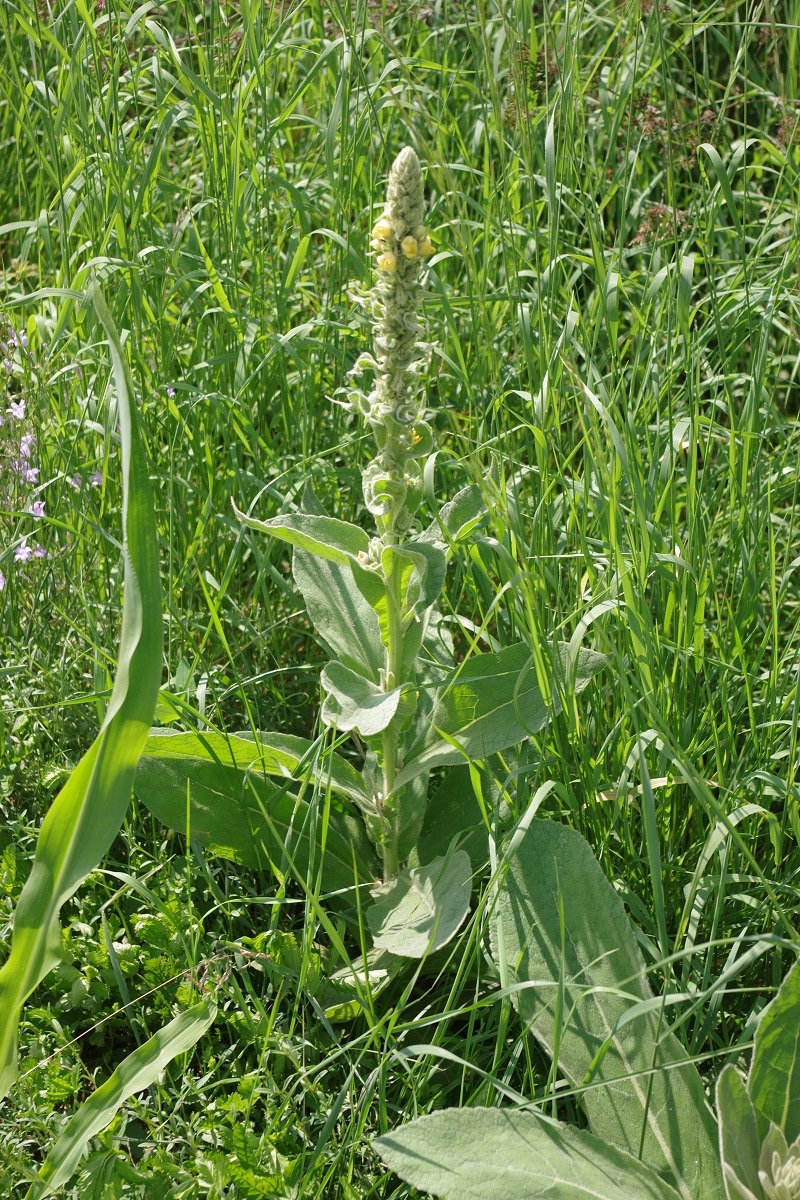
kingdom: Plantae
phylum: Tracheophyta
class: Magnoliopsida
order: Lamiales
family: Scrophulariaceae
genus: Verbascum
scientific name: Verbascum thapsus
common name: Common mullein
